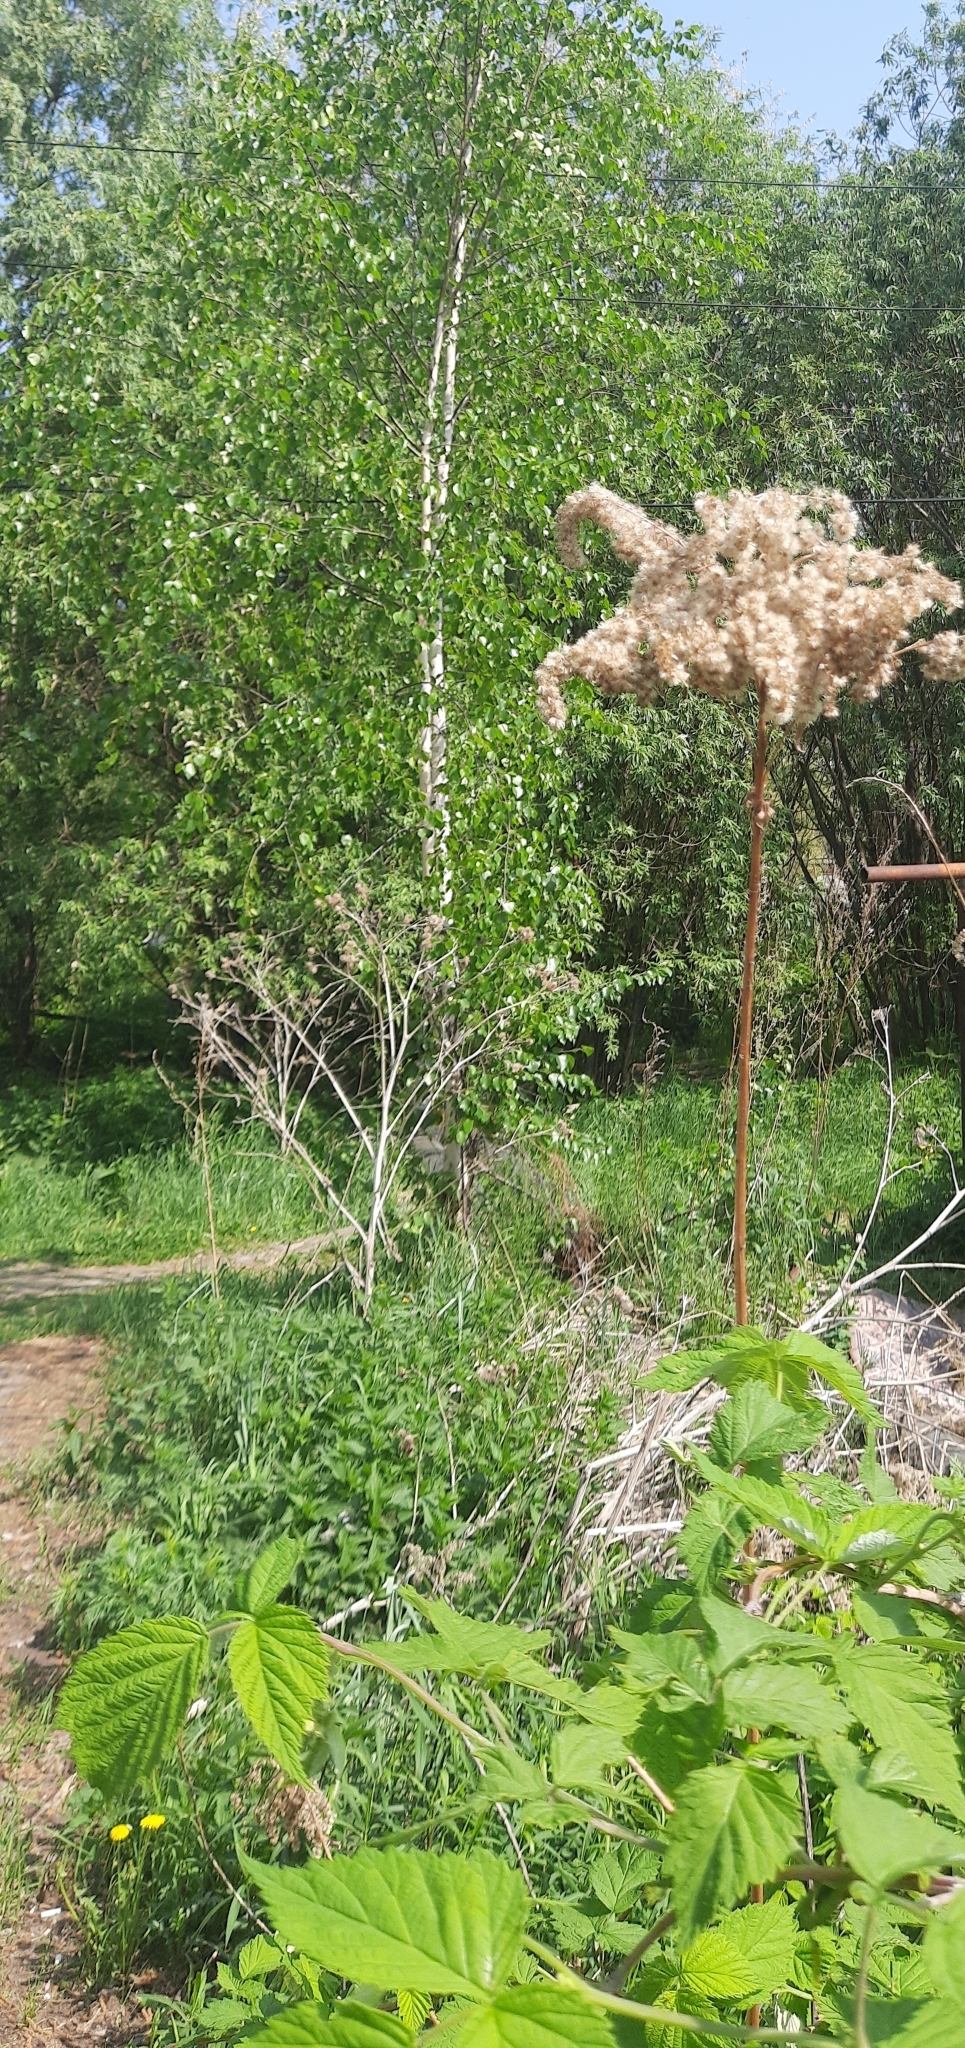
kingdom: Plantae
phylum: Tracheophyta
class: Magnoliopsida
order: Asterales
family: Asteraceae
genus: Solidago
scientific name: Solidago gigantea
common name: Giant goldenrod
